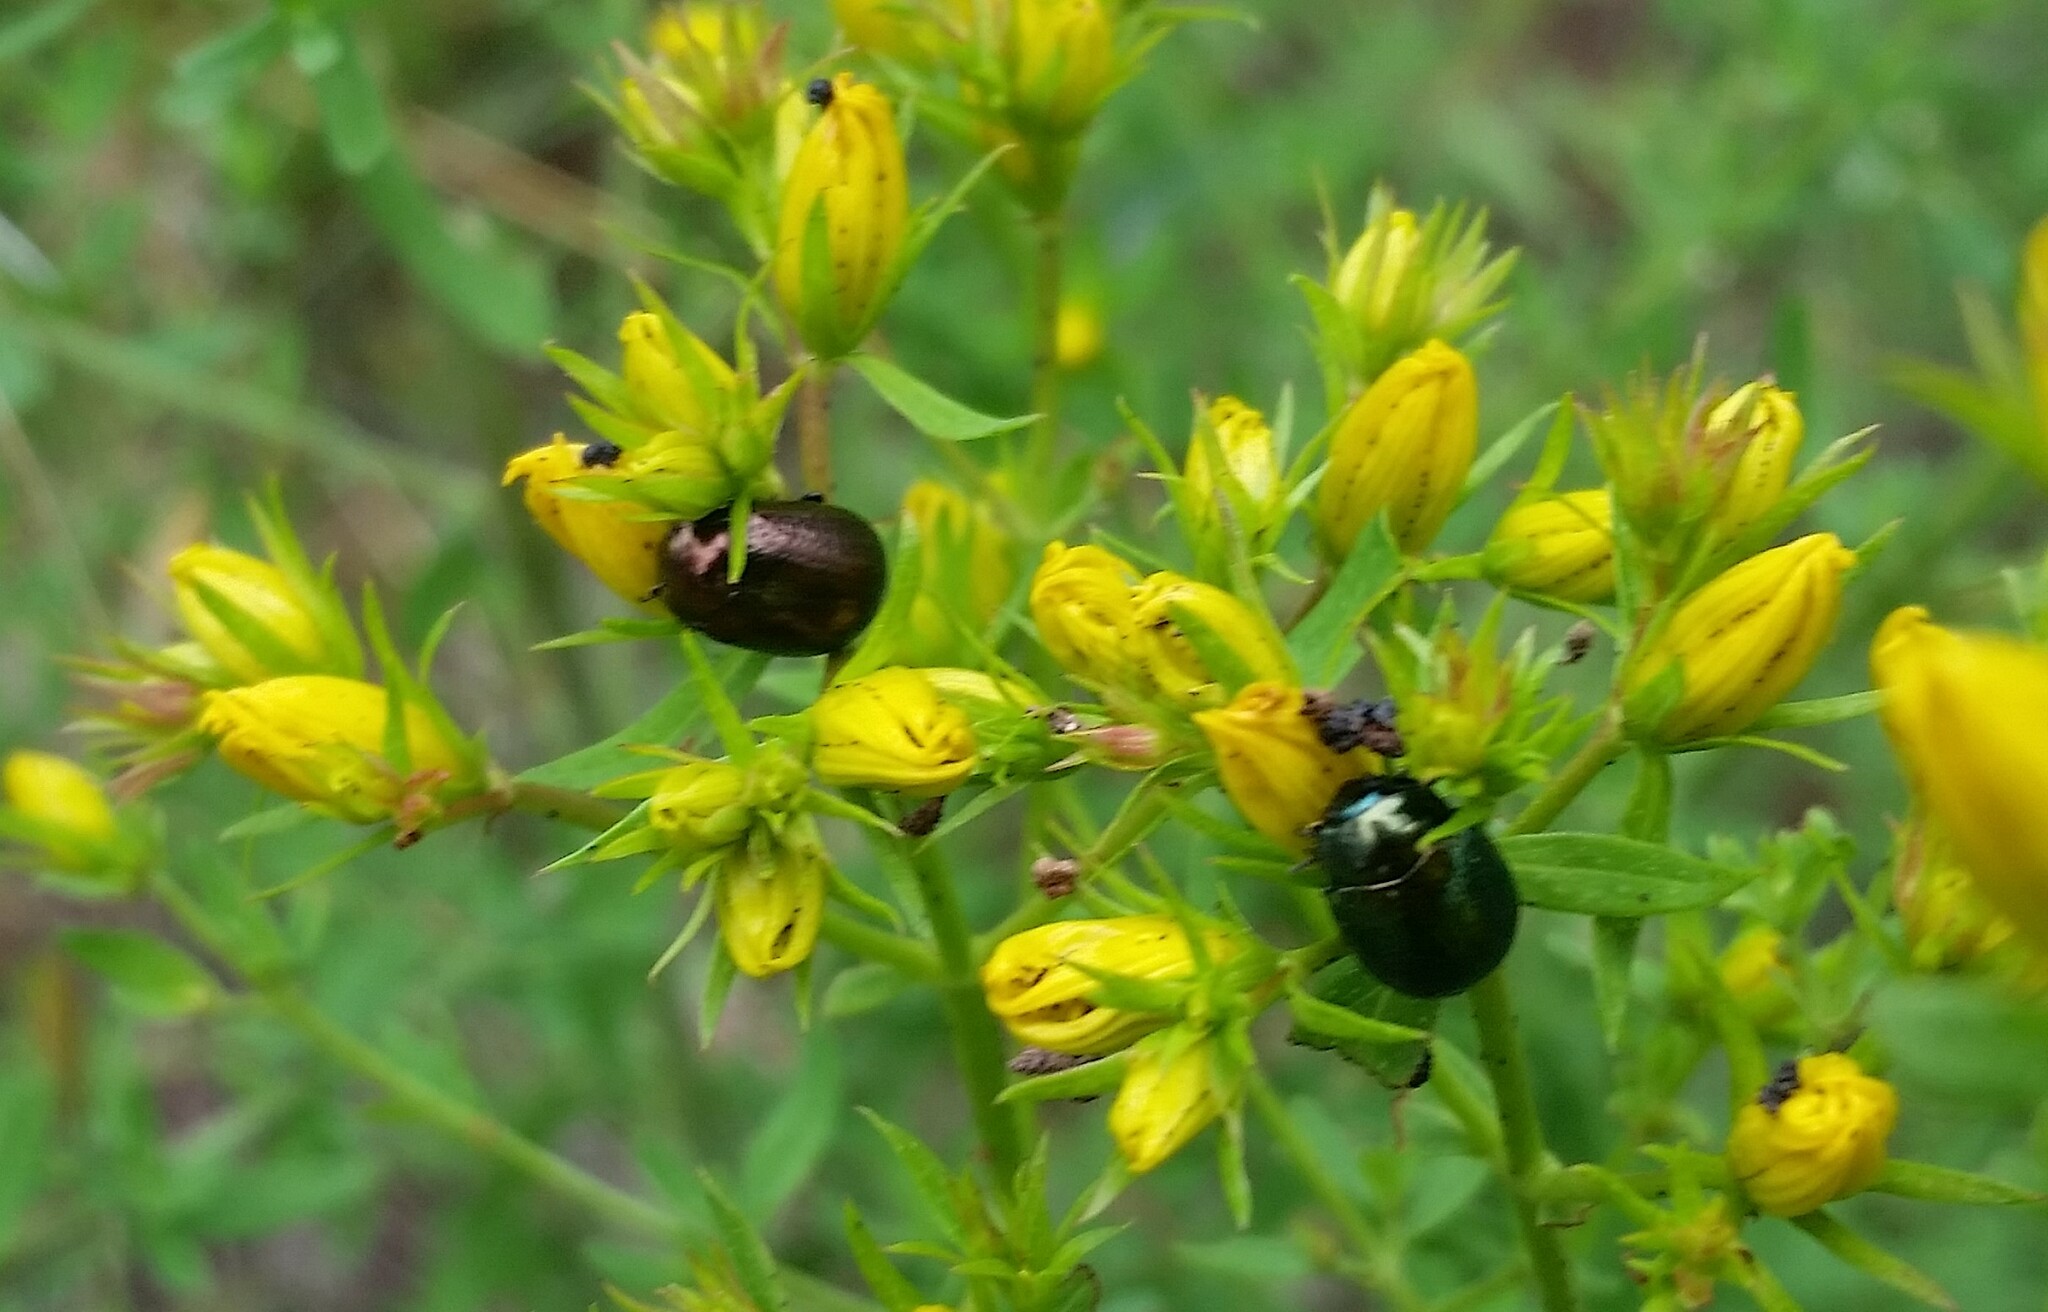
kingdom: Animalia
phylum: Arthropoda
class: Insecta
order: Coleoptera
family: Chrysomelidae
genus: Chrysolina
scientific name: Chrysolina hyperici
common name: St. johnswort beetle
